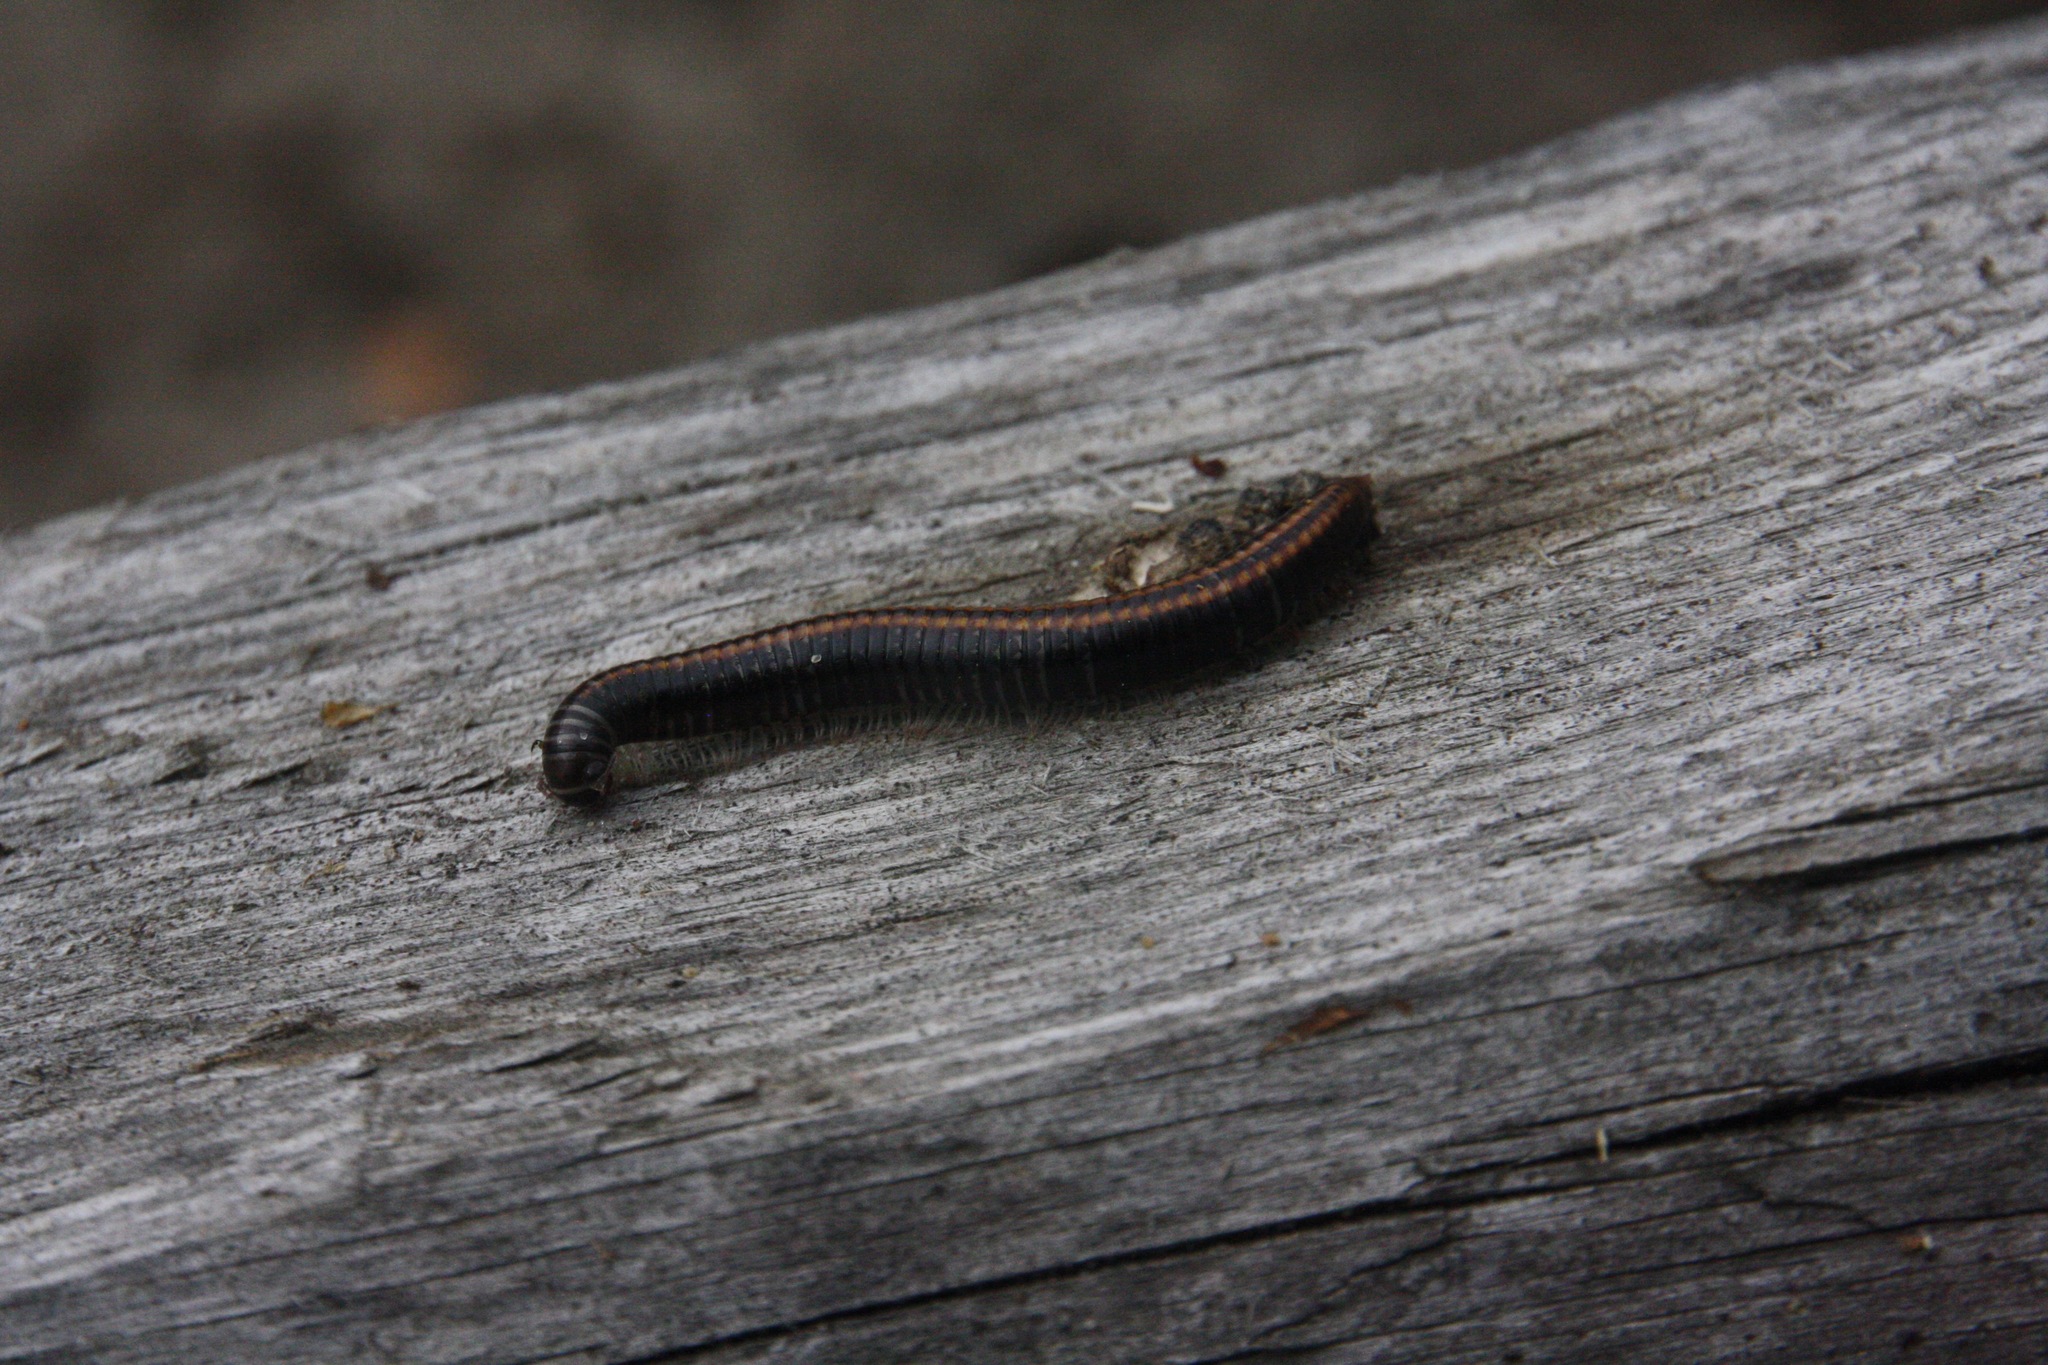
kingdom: Animalia
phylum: Arthropoda
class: Diplopoda
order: Julida
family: Julidae
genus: Ommatoiulus
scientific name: Ommatoiulus sabulosus
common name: Striped millipede
